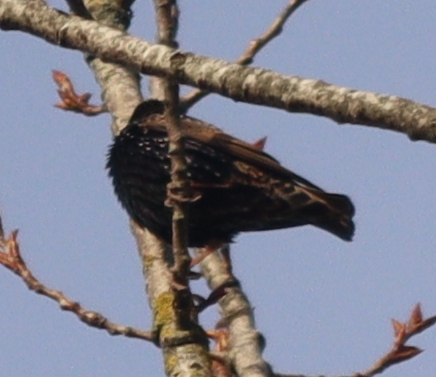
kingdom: Animalia
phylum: Chordata
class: Aves
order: Passeriformes
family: Sturnidae
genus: Sturnus
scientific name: Sturnus vulgaris
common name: Common starling
